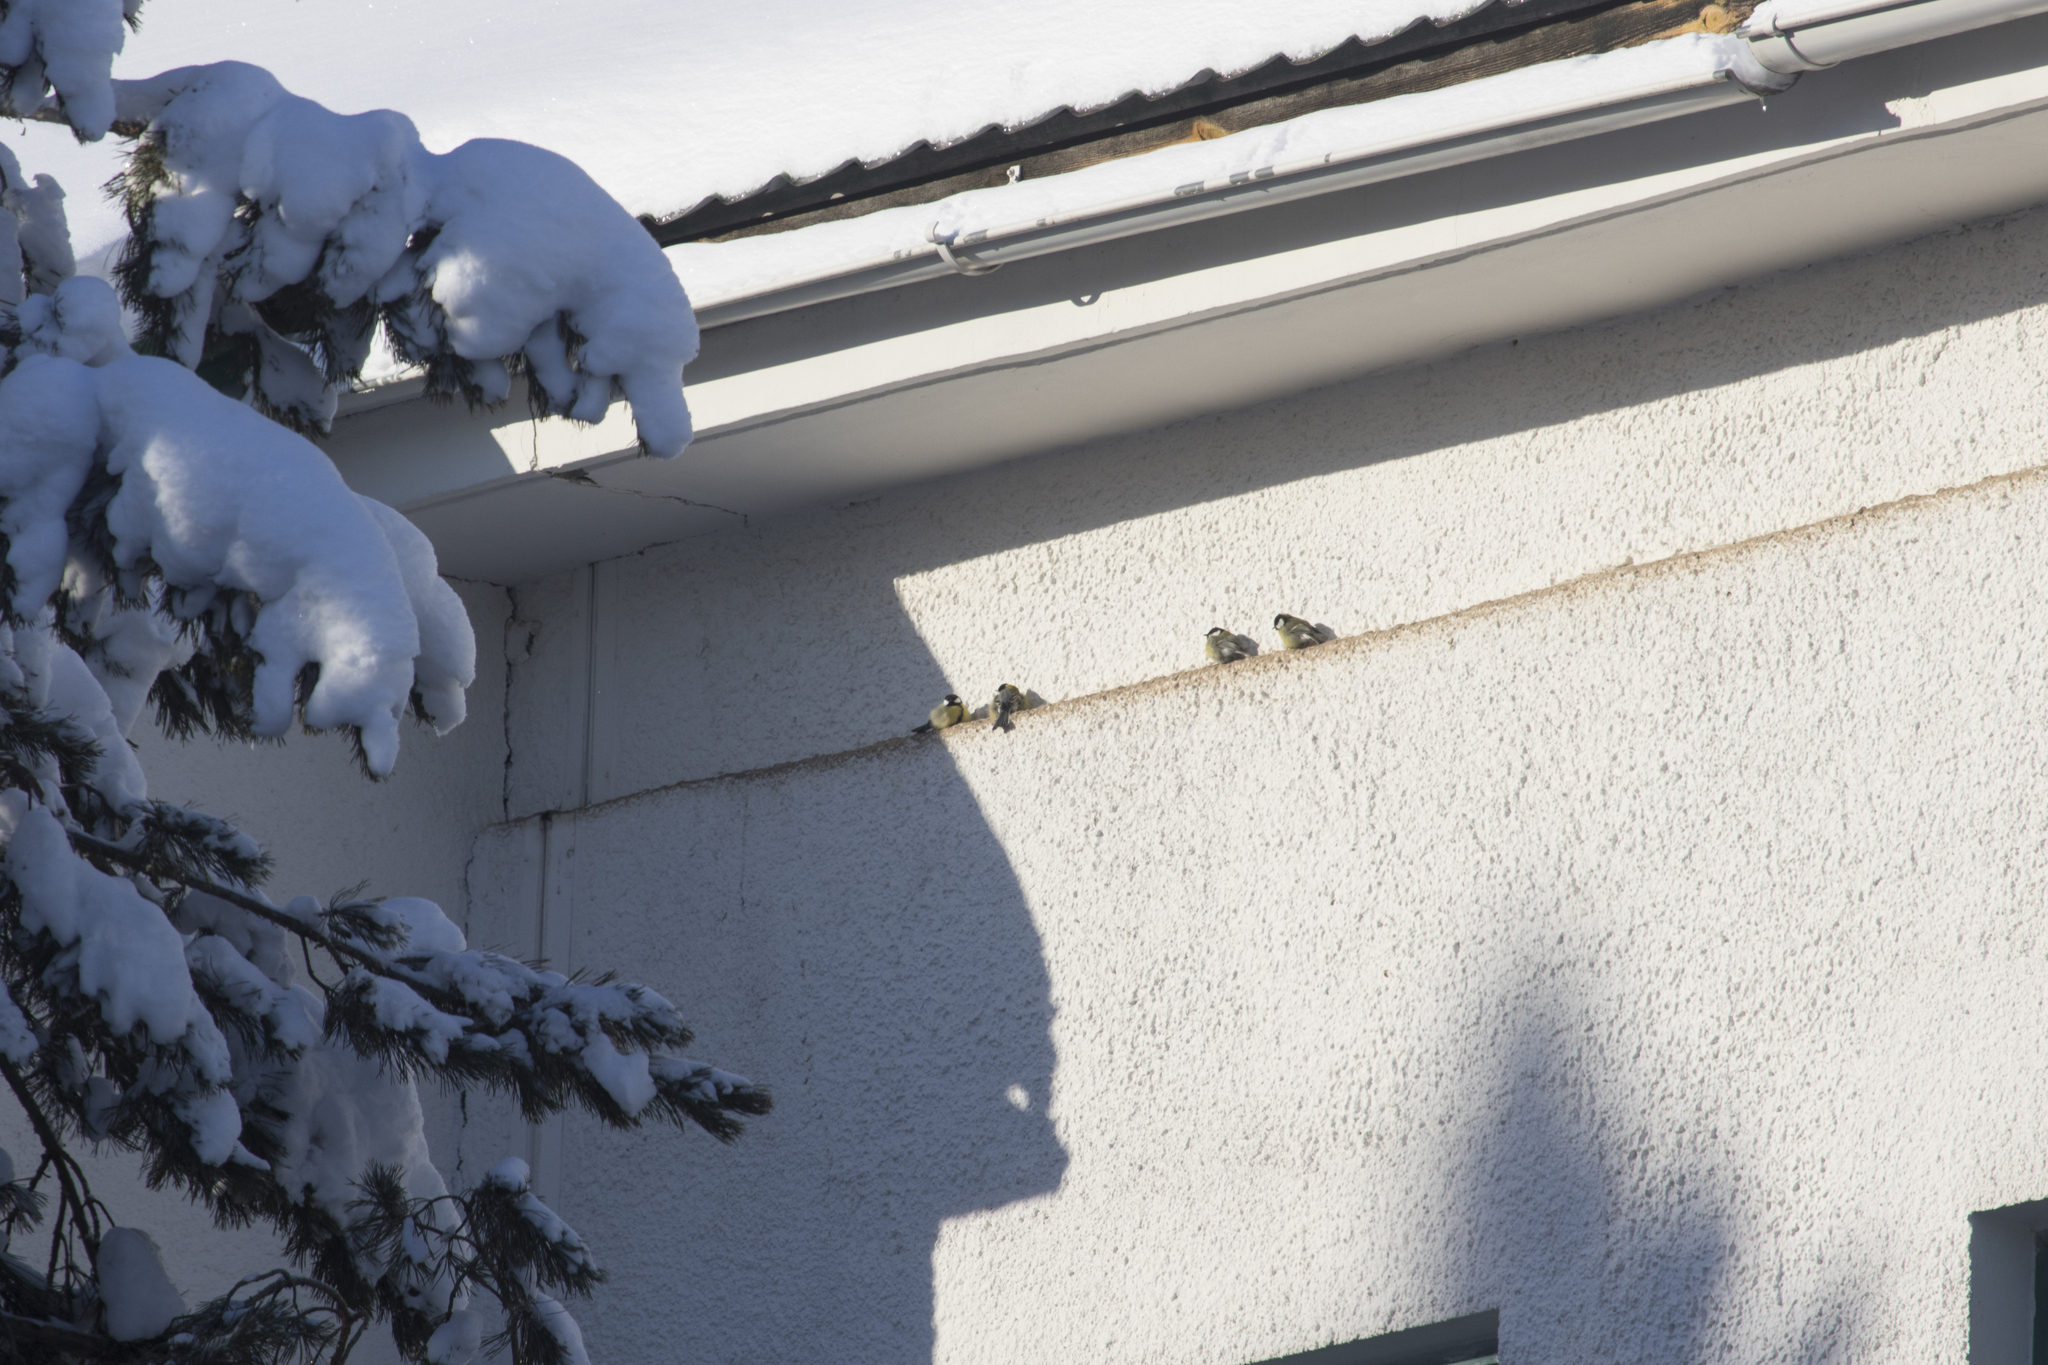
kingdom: Animalia
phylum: Chordata
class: Aves
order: Passeriformes
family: Paridae
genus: Parus
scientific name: Parus major
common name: Great tit
